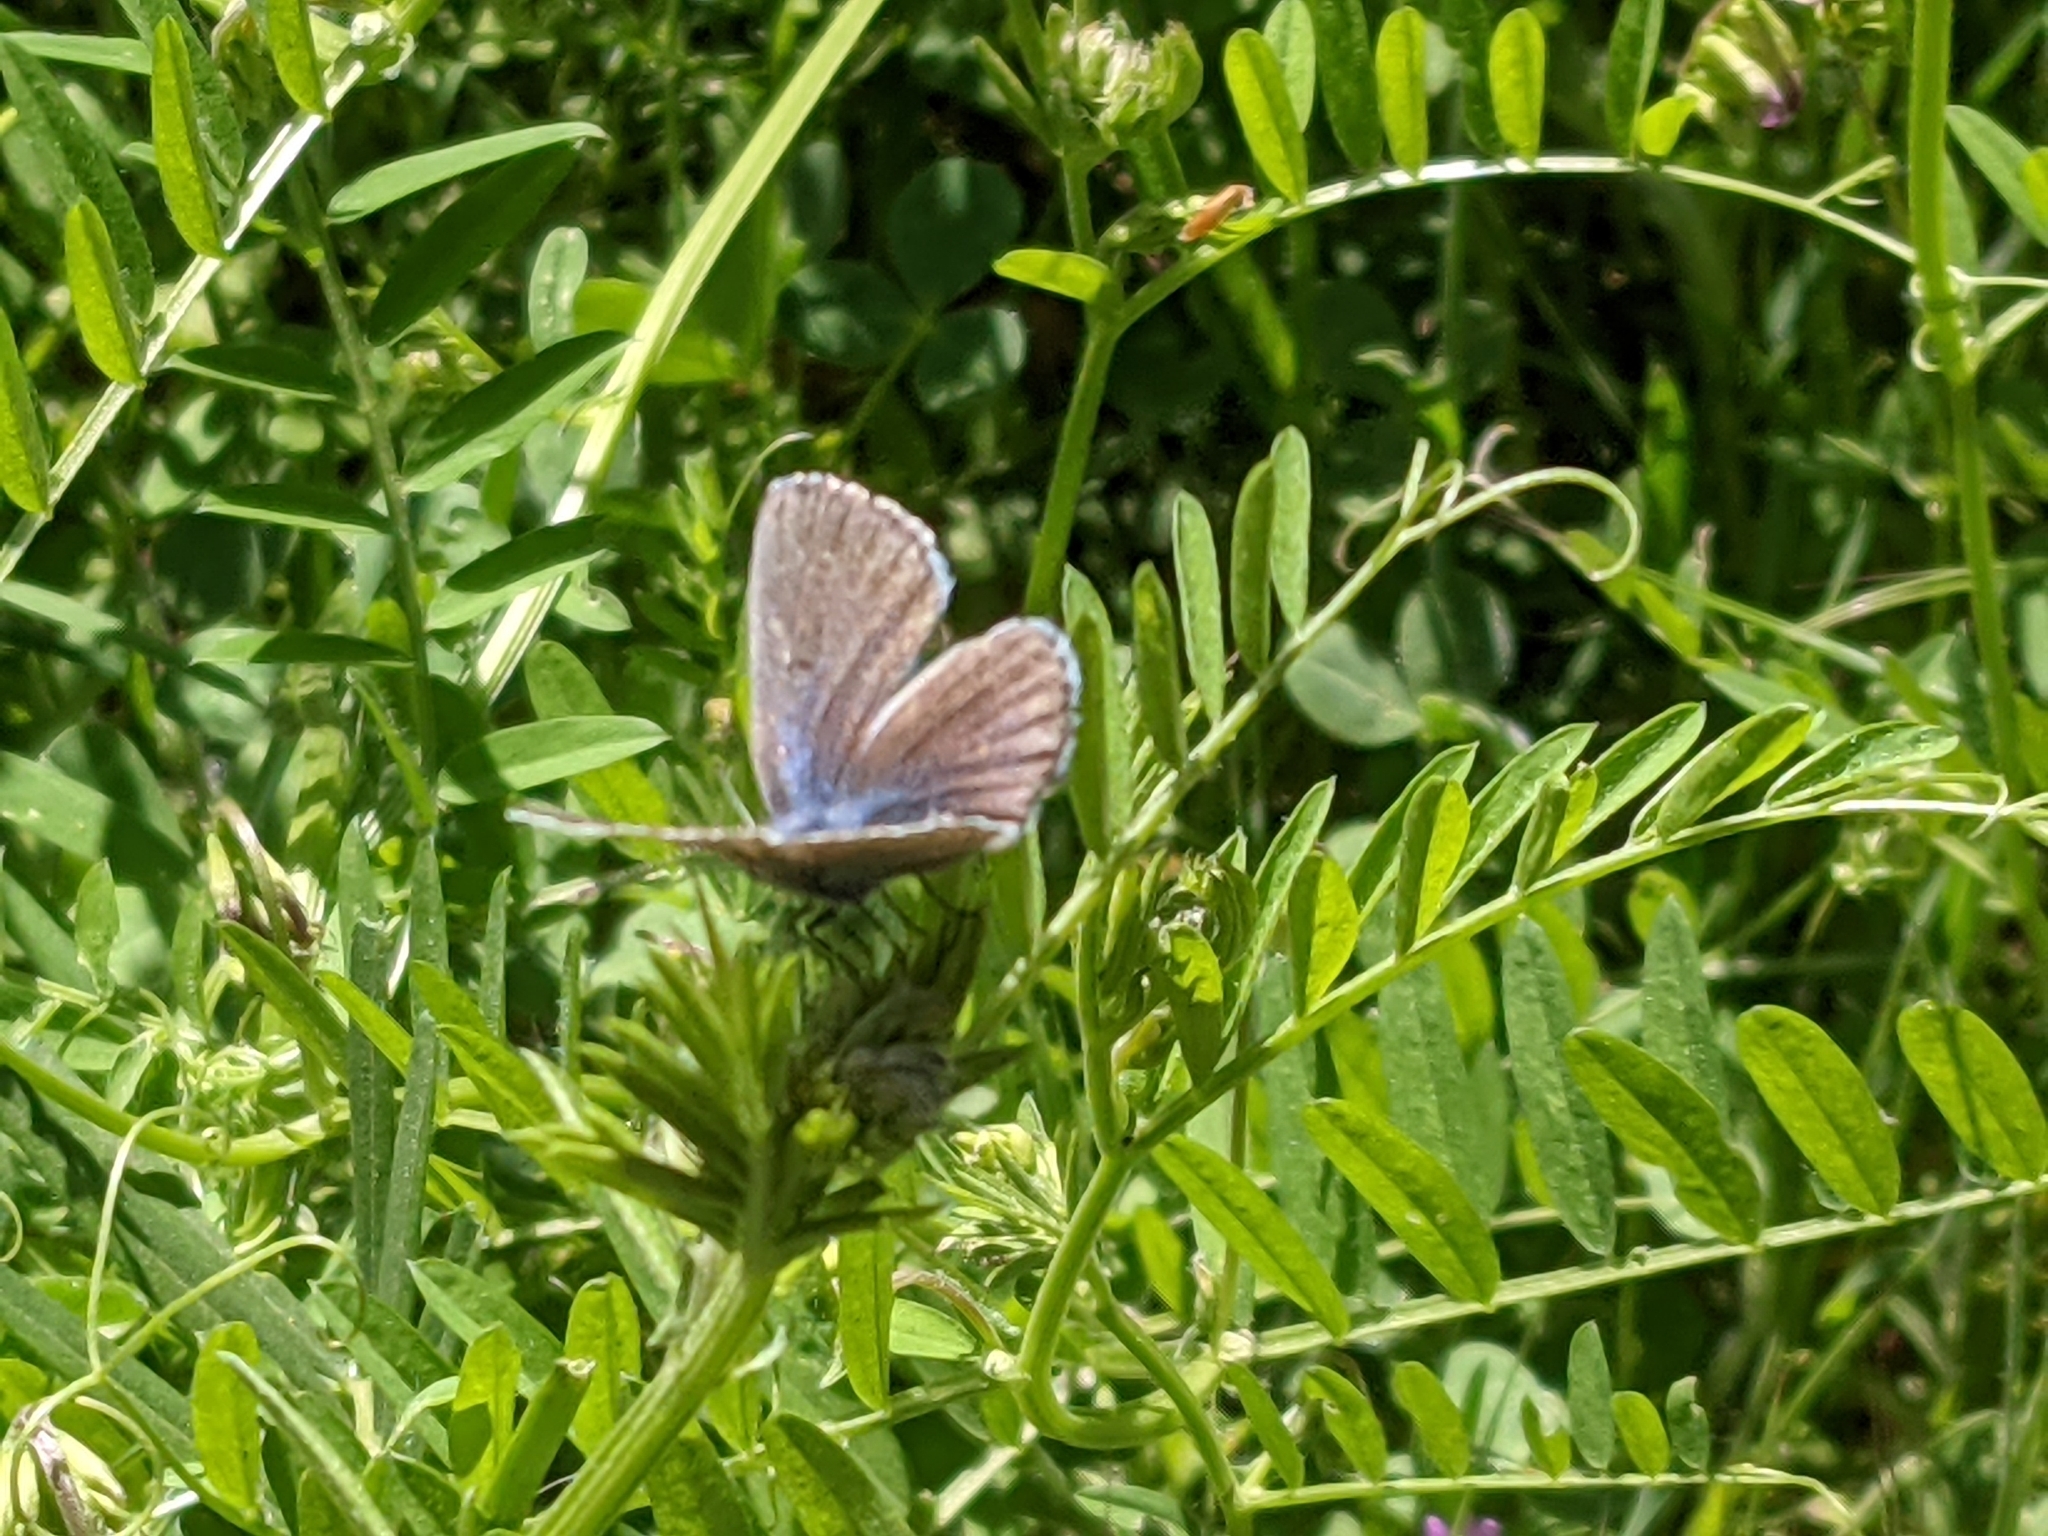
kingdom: Animalia
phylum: Arthropoda
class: Insecta
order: Lepidoptera
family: Lycaenidae
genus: Glaucopsyche
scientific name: Glaucopsyche lygdamus
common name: Silvery blue
